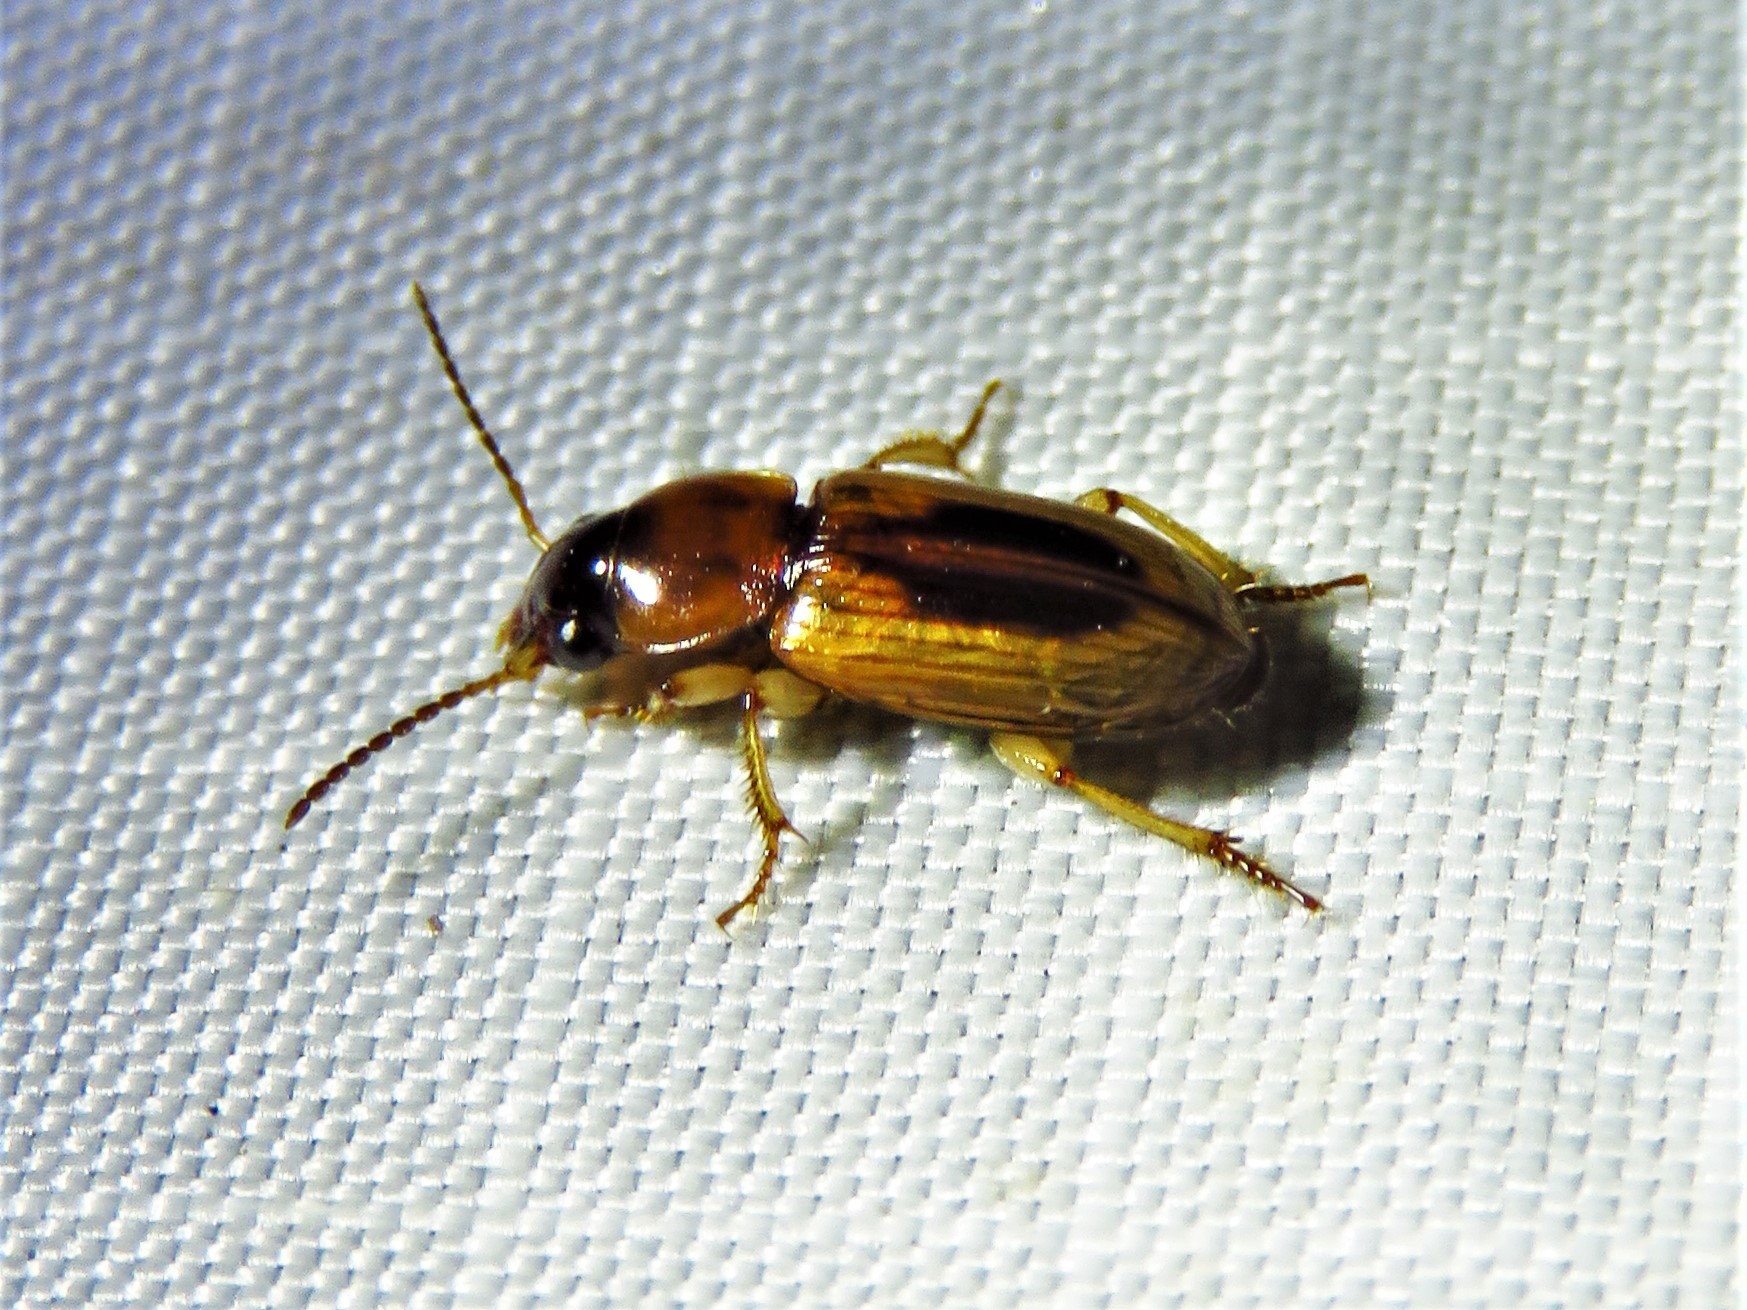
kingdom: Animalia
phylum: Arthropoda
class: Insecta
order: Coleoptera
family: Carabidae
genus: Stenolophus
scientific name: Stenolophus lecontei
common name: Leconte's seedcorn beetle
